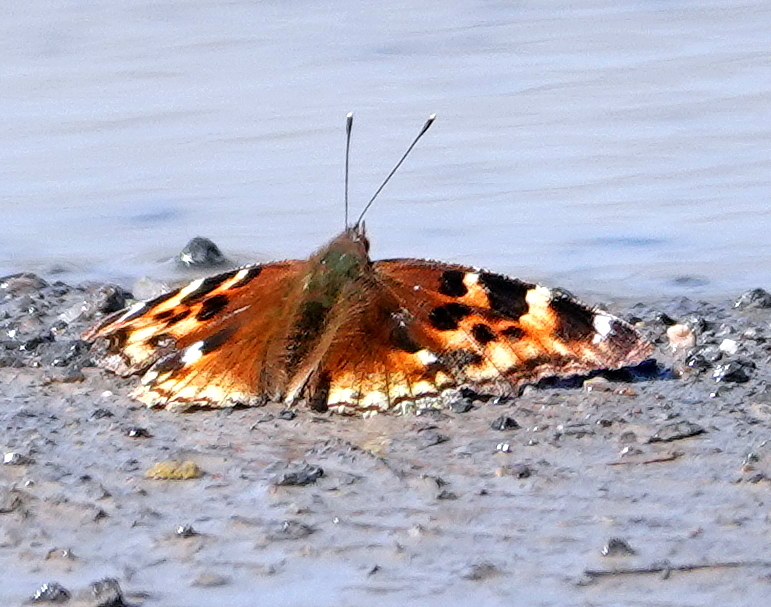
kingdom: Animalia
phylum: Arthropoda
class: Insecta
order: Lepidoptera
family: Nymphalidae
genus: Polygonia
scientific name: Polygonia vaualbum
